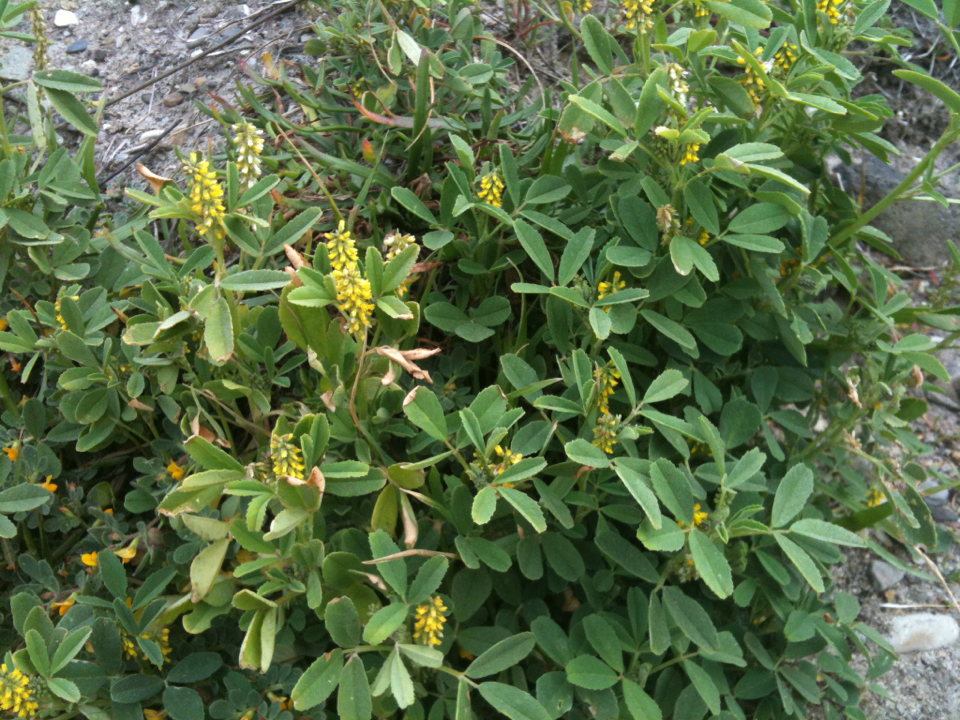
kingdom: Plantae
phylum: Tracheophyta
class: Magnoliopsida
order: Fabales
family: Fabaceae
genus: Melilotus
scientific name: Melilotus indicus
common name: Small melilot
